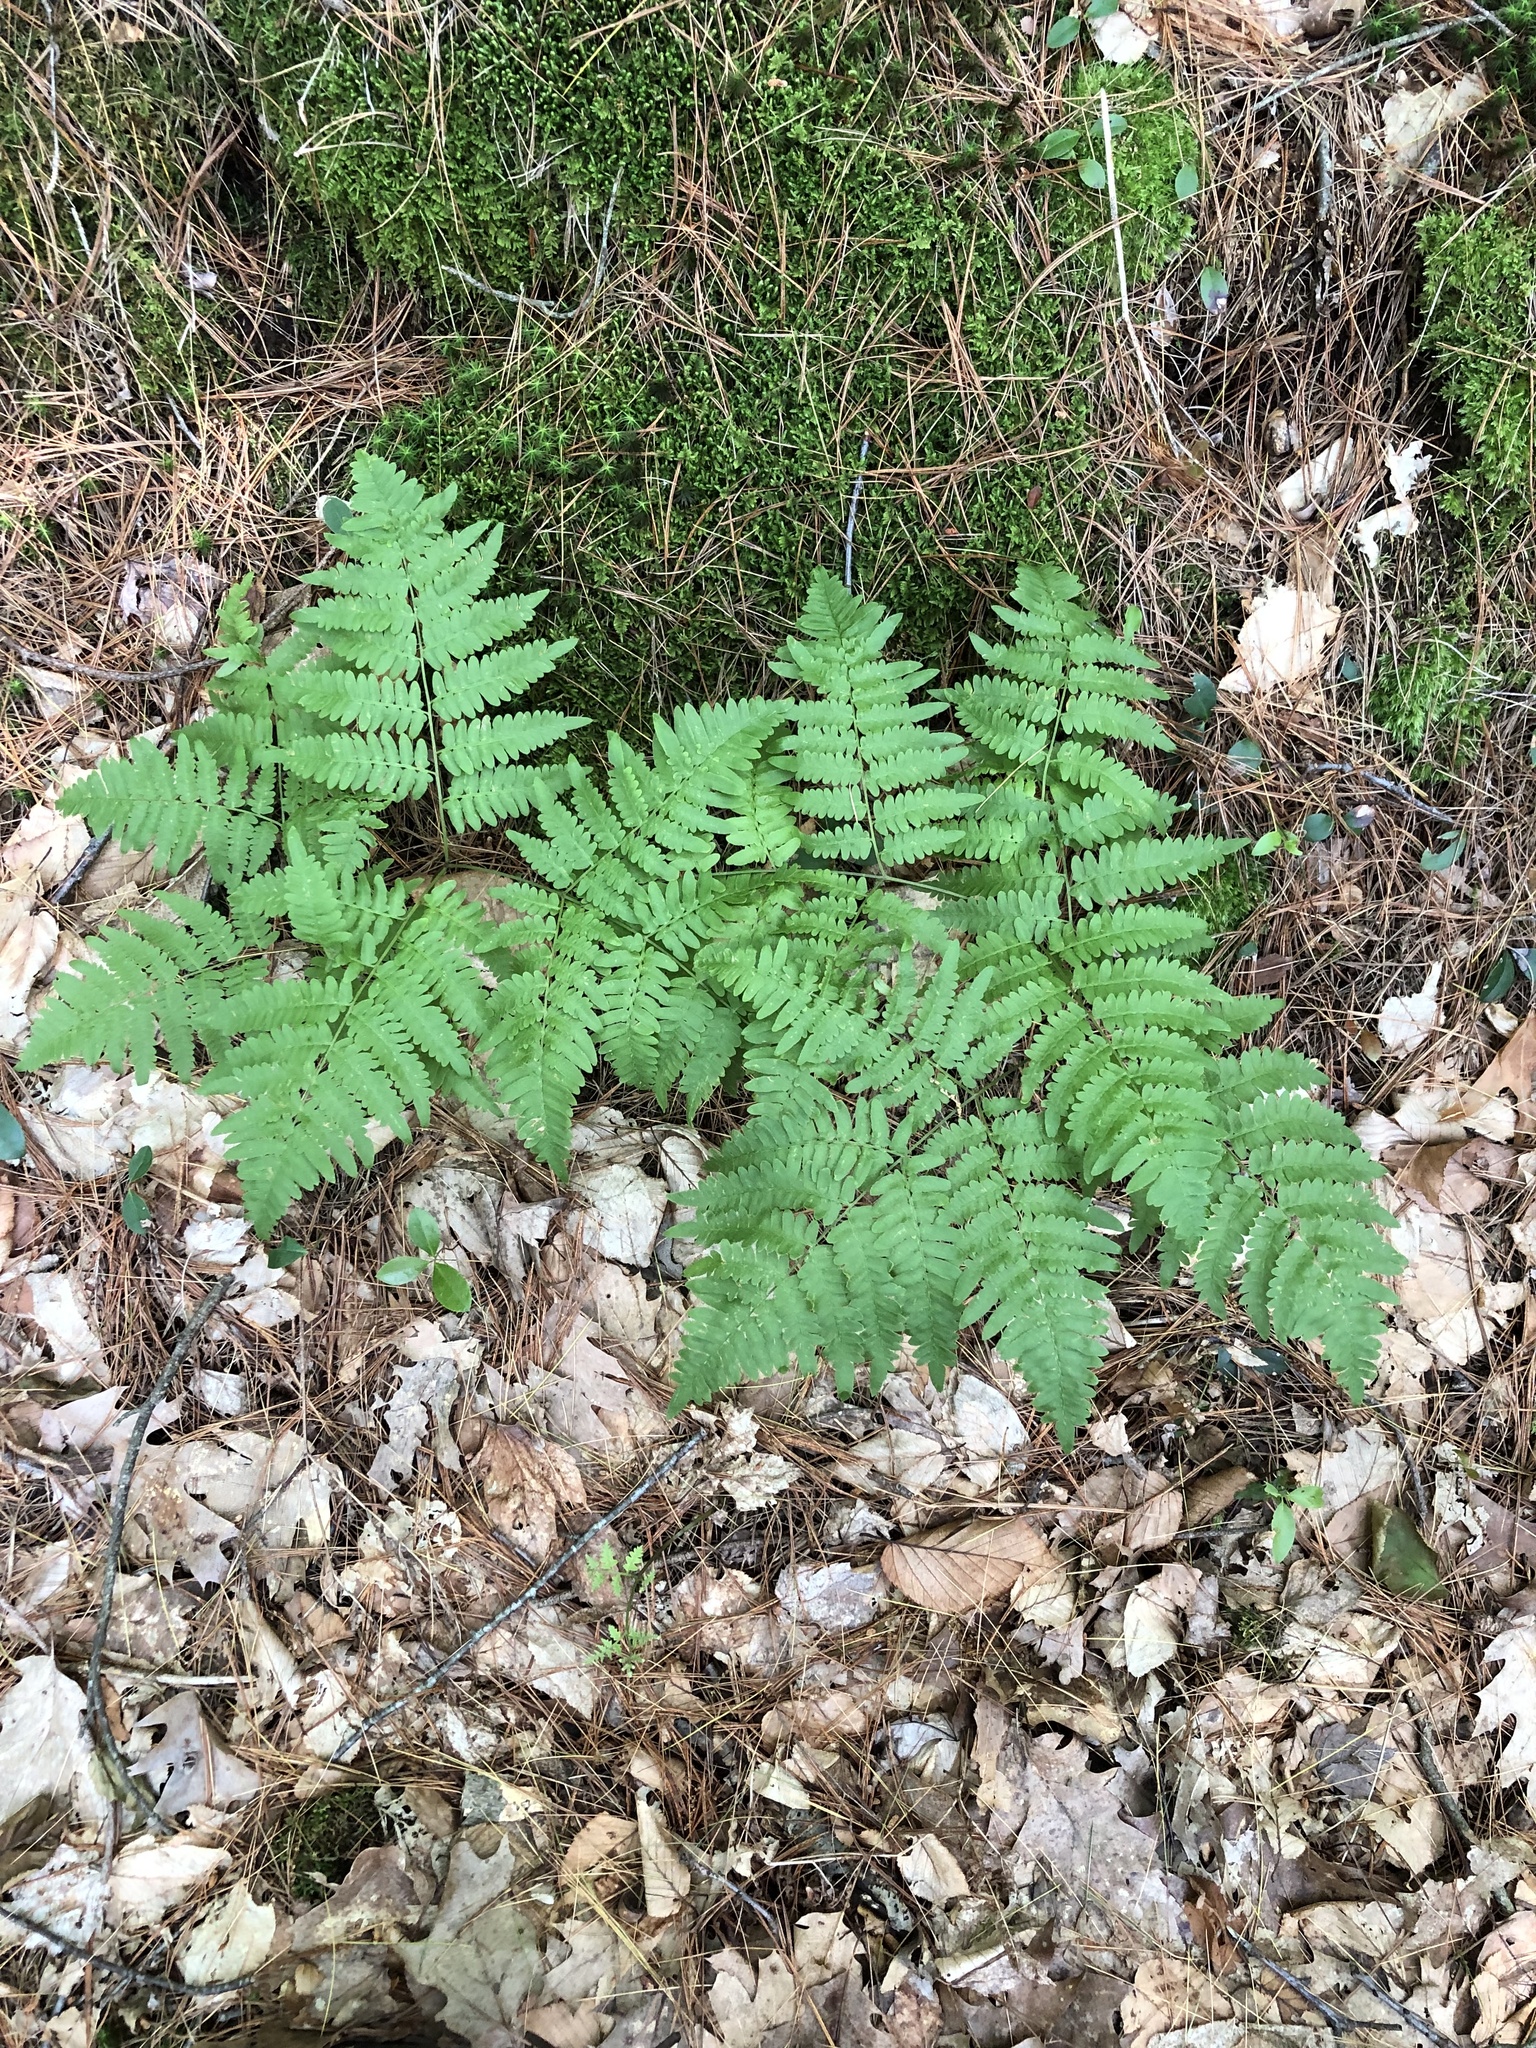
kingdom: Plantae
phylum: Tracheophyta
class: Polypodiopsida
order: Polypodiales
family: Dennstaedtiaceae
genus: Pteridium
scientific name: Pteridium aquilinum
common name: Bracken
